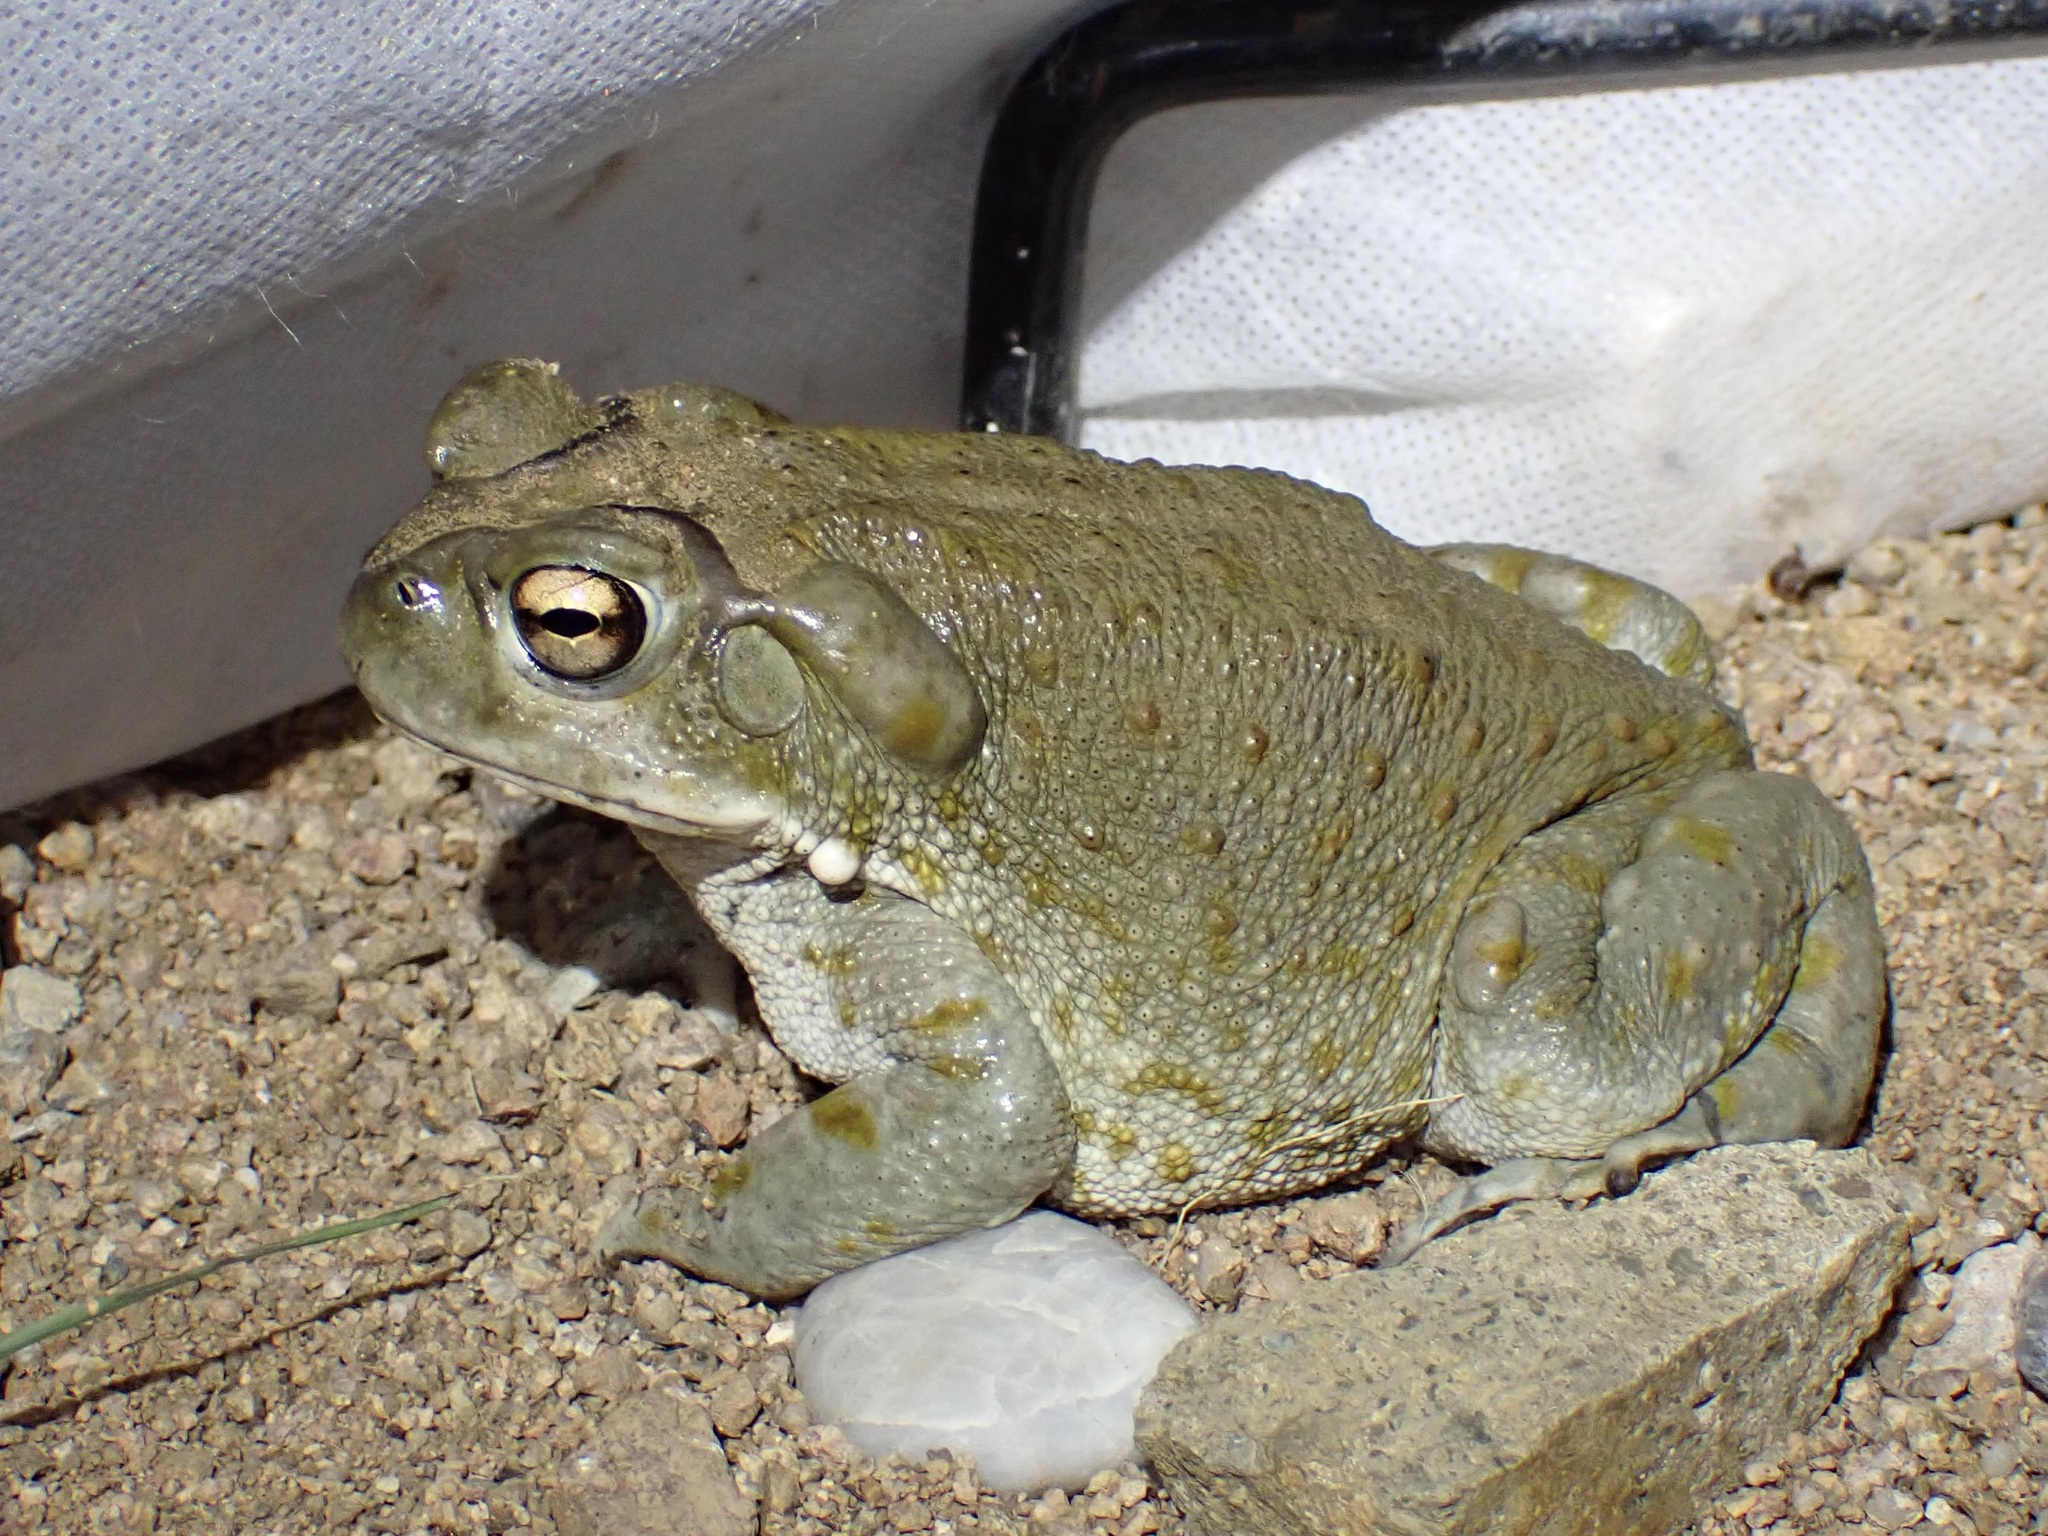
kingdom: Animalia
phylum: Chordata
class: Amphibia
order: Anura
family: Bufonidae
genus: Incilius
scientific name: Incilius alvarius
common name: Sonoran desert toad
